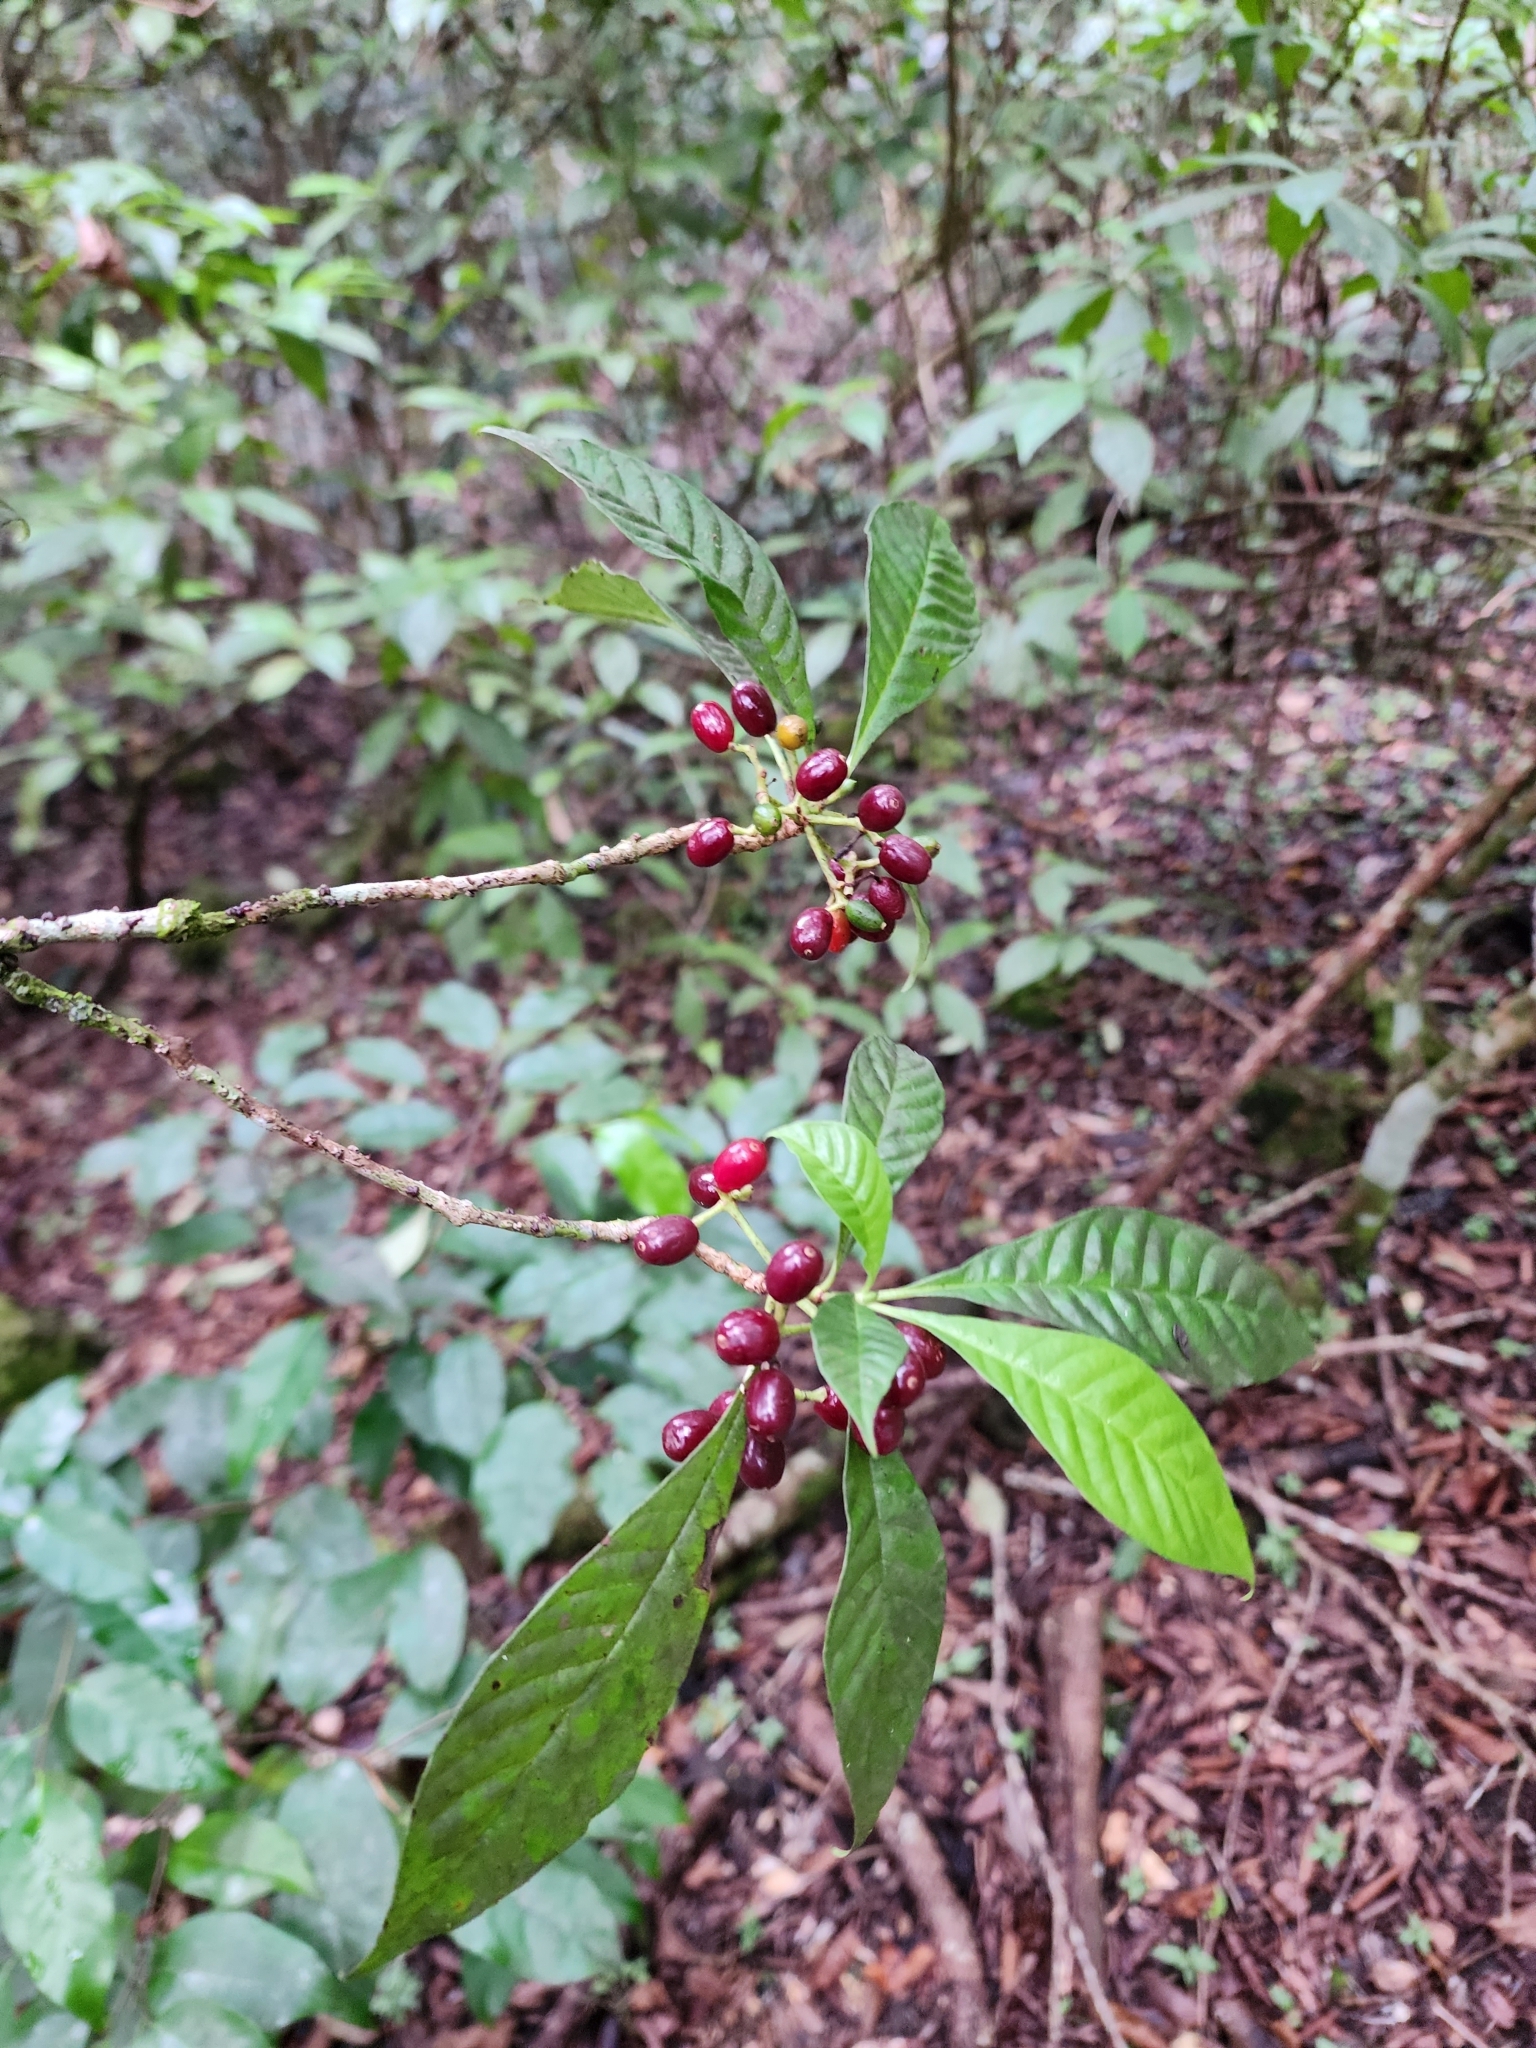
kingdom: Plantae
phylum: Tracheophyta
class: Magnoliopsida
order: Gentianales
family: Rubiaceae
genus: Psychotria
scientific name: Psychotria nervosa
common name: Bastard cankerberry
